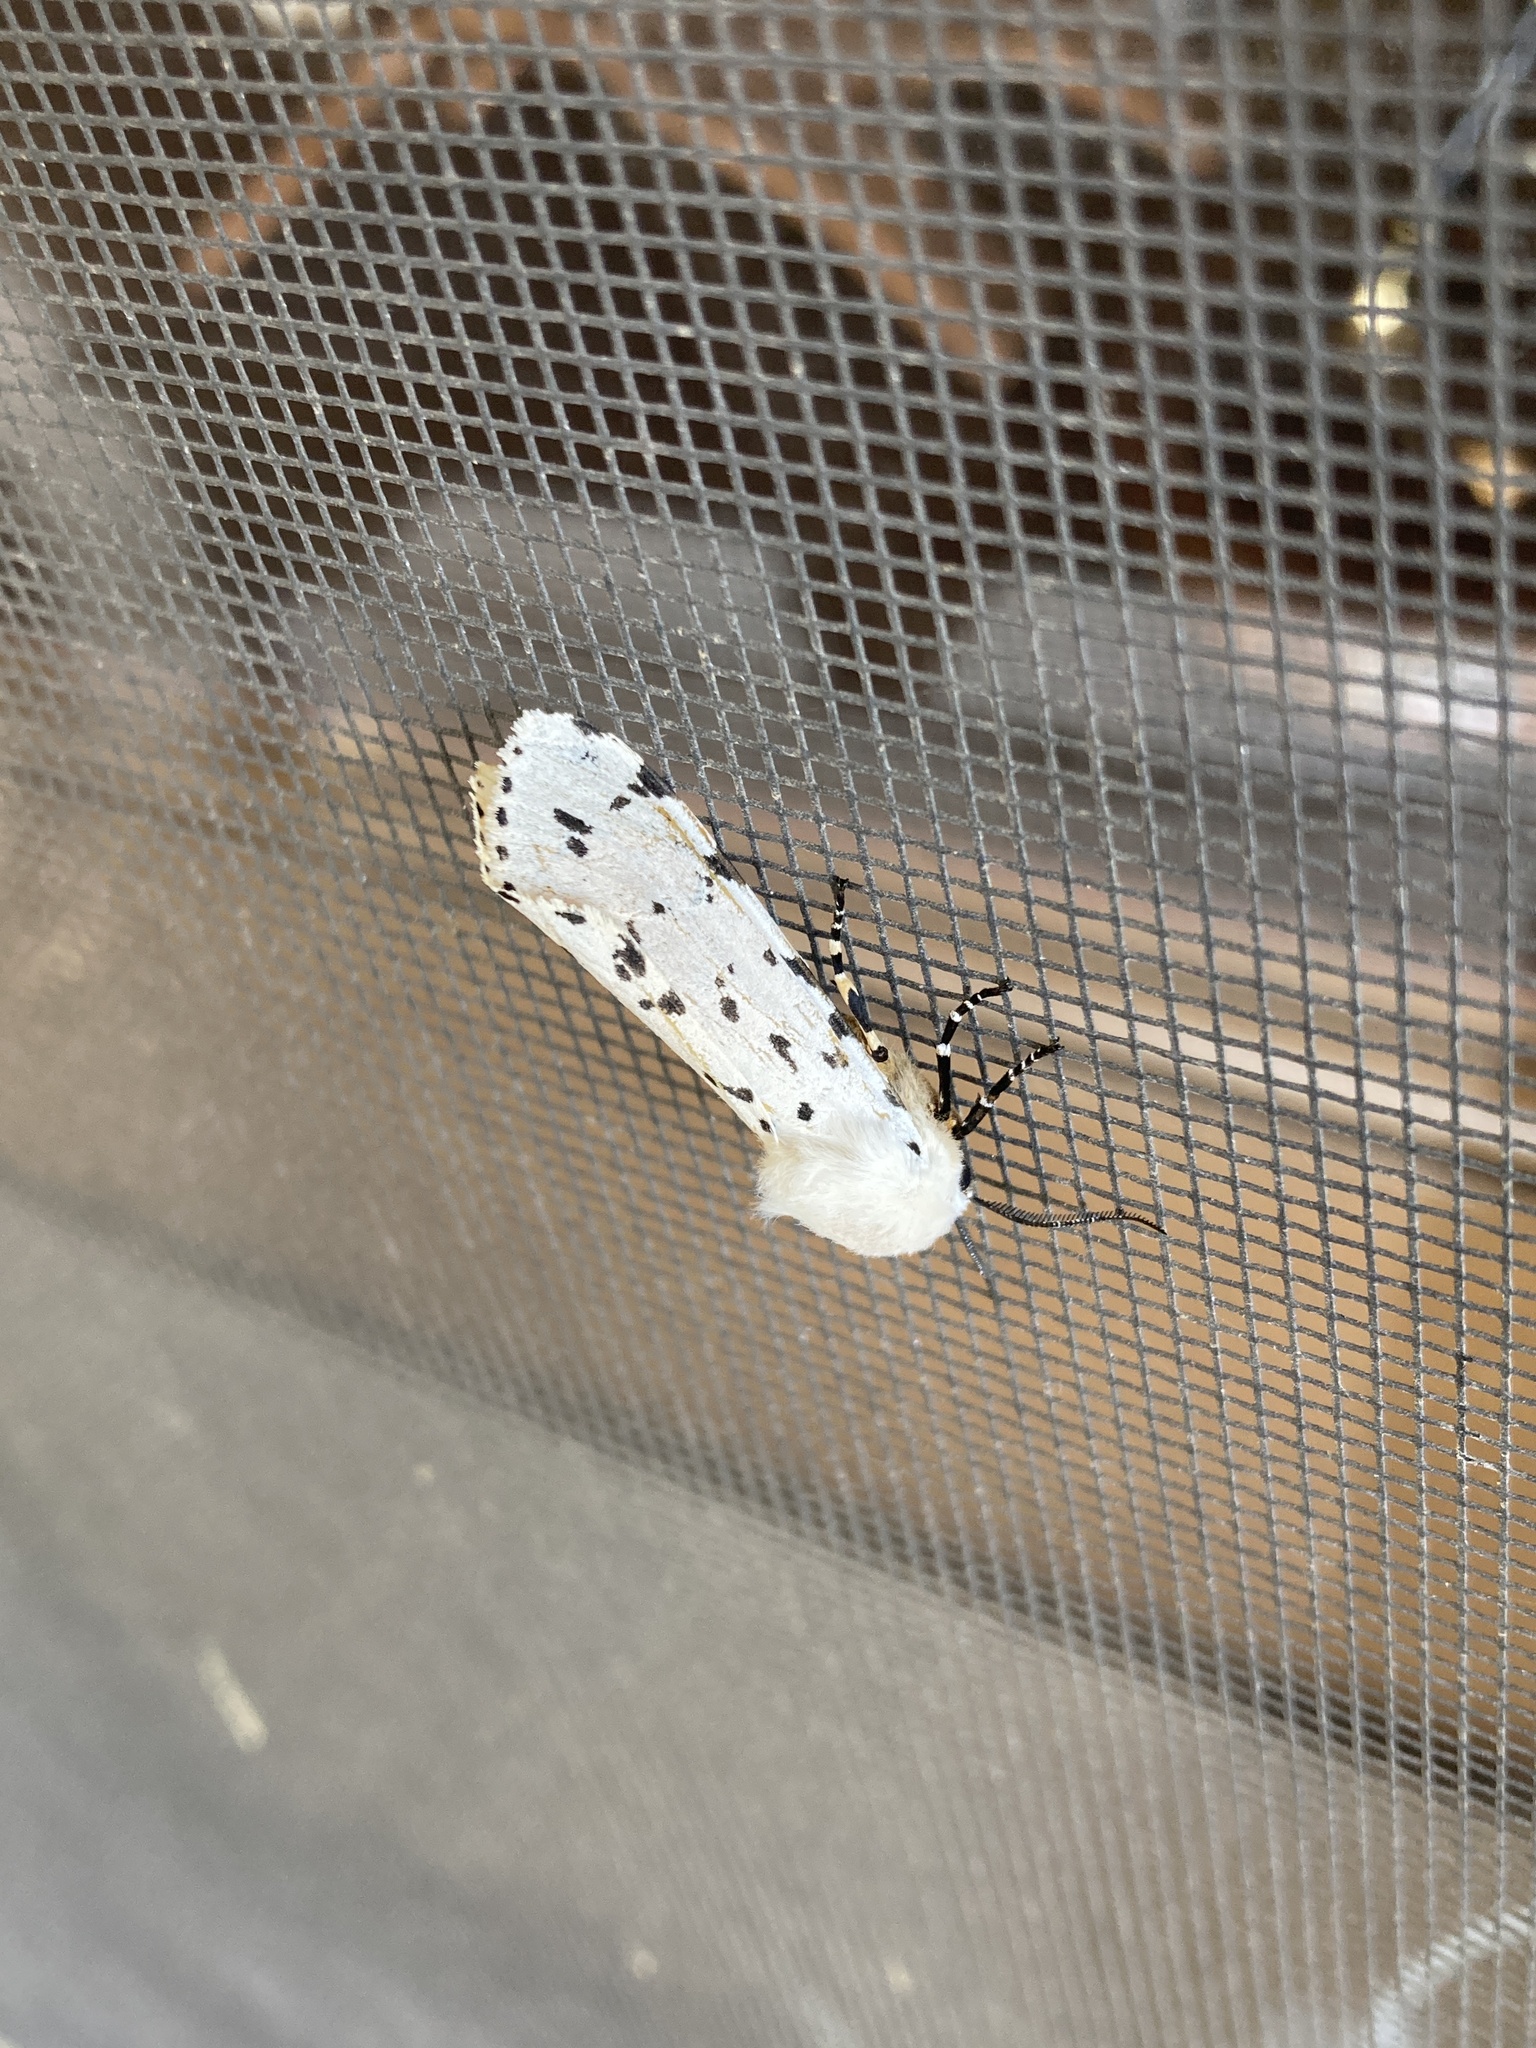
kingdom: Animalia
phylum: Arthropoda
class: Insecta
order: Lepidoptera
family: Erebidae
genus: Estigmene
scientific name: Estigmene acrea
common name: Salt marsh moth
